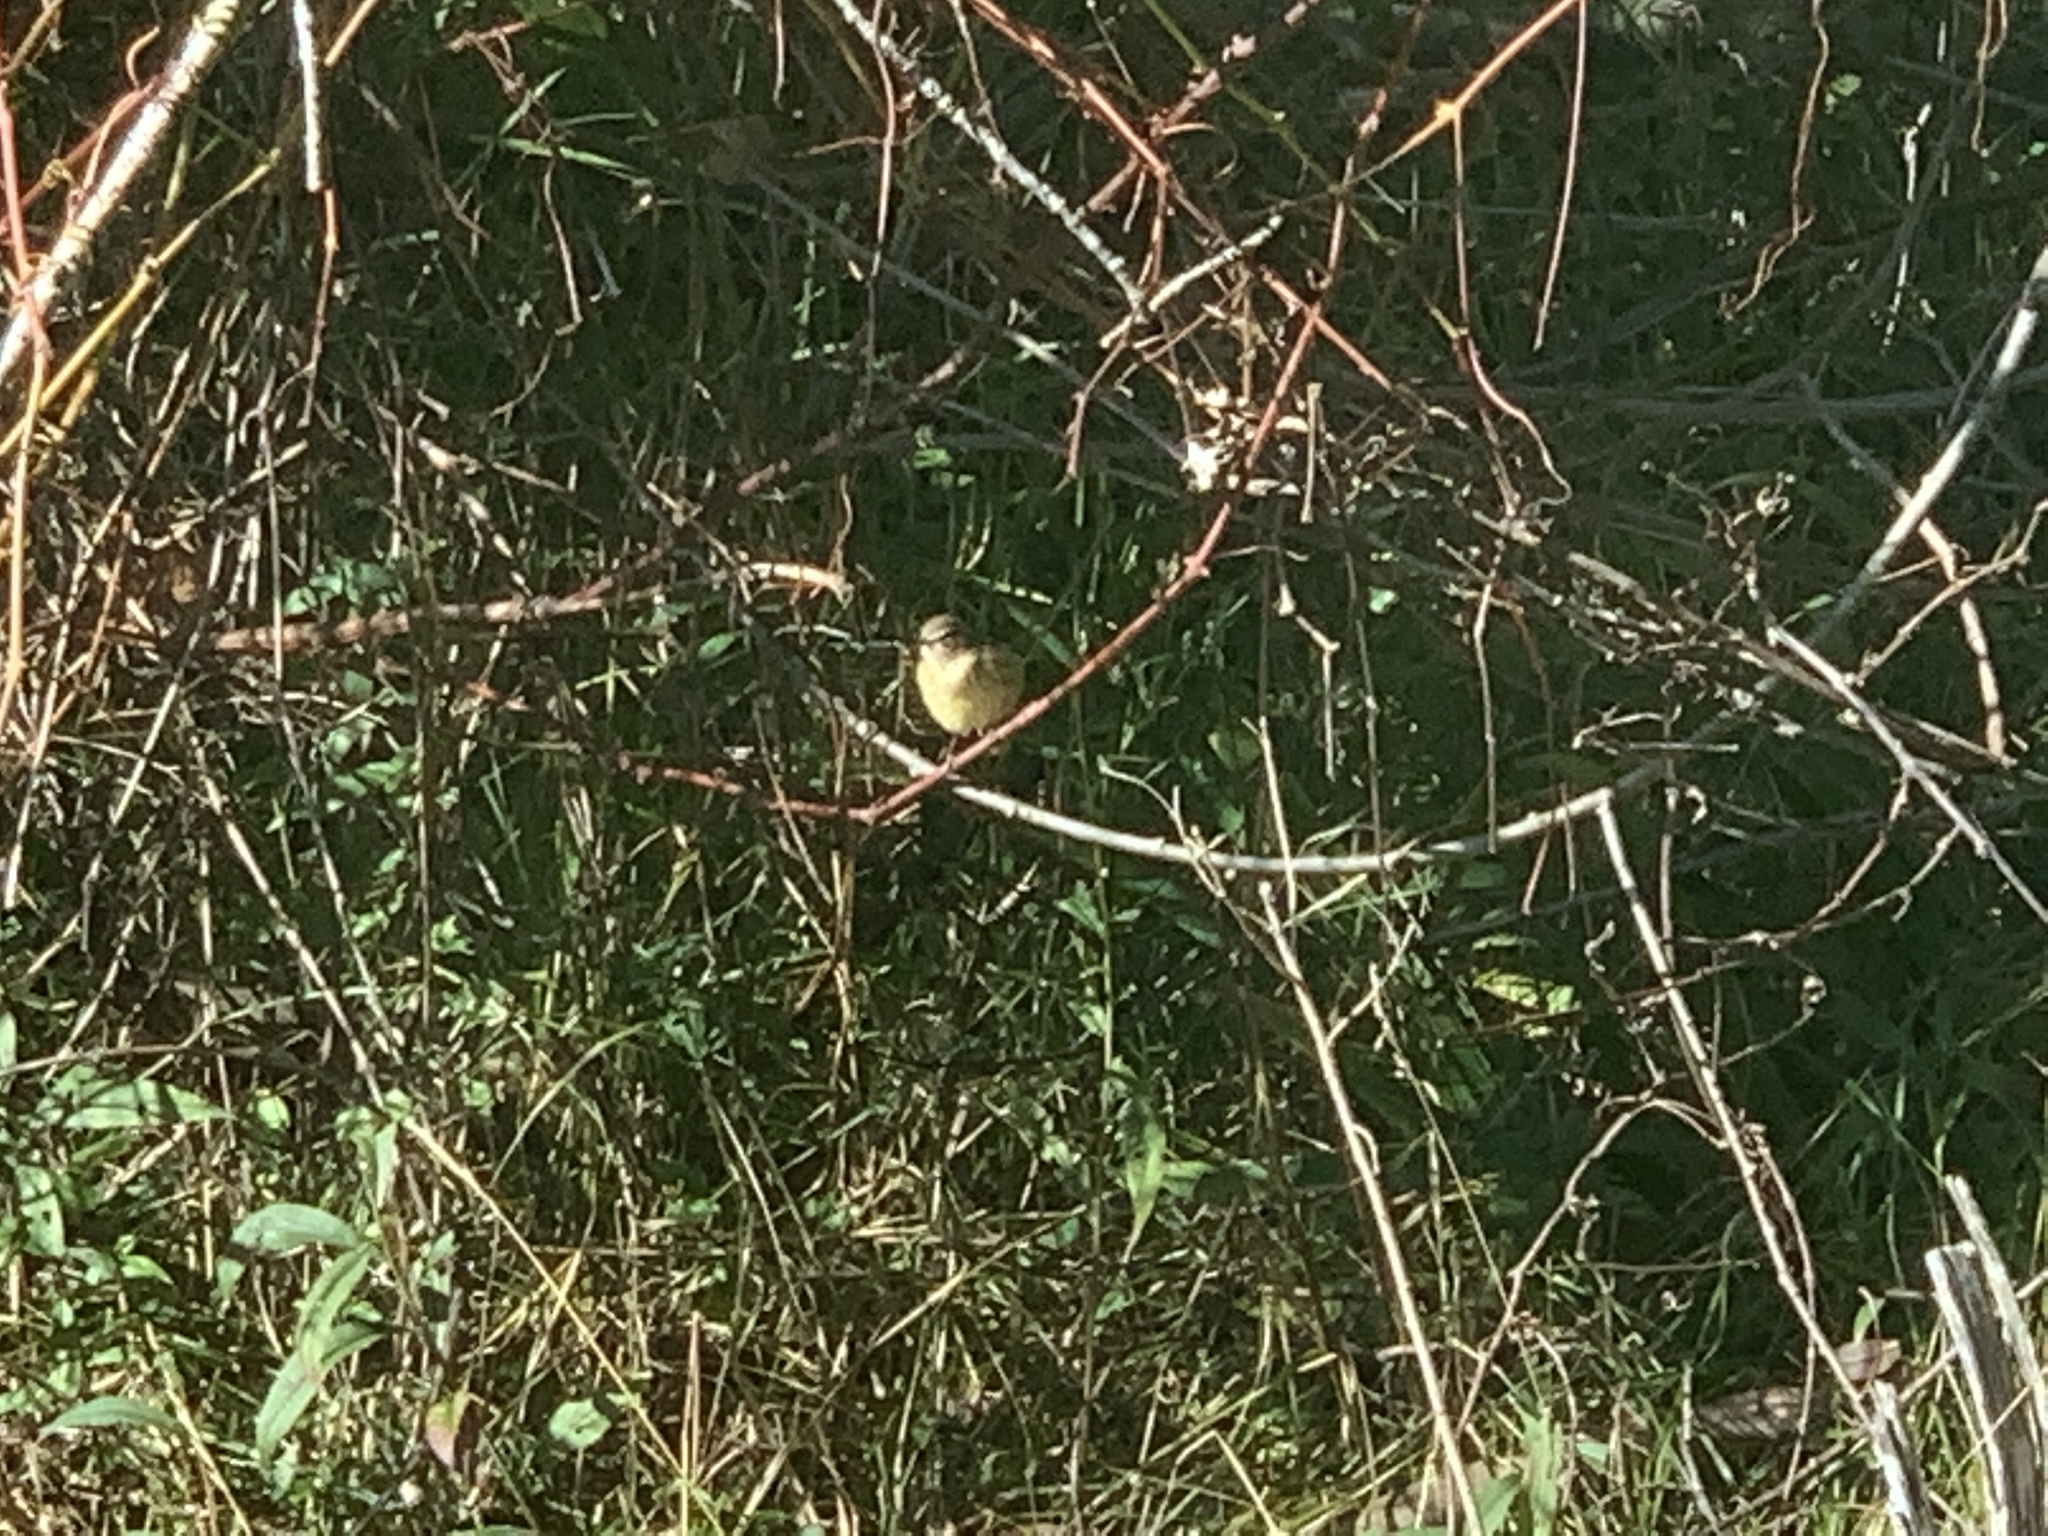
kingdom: Animalia
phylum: Chordata
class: Aves
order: Passeriformes
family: Parulidae
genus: Setophaga
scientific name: Setophaga palmarum
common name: Palm warbler
